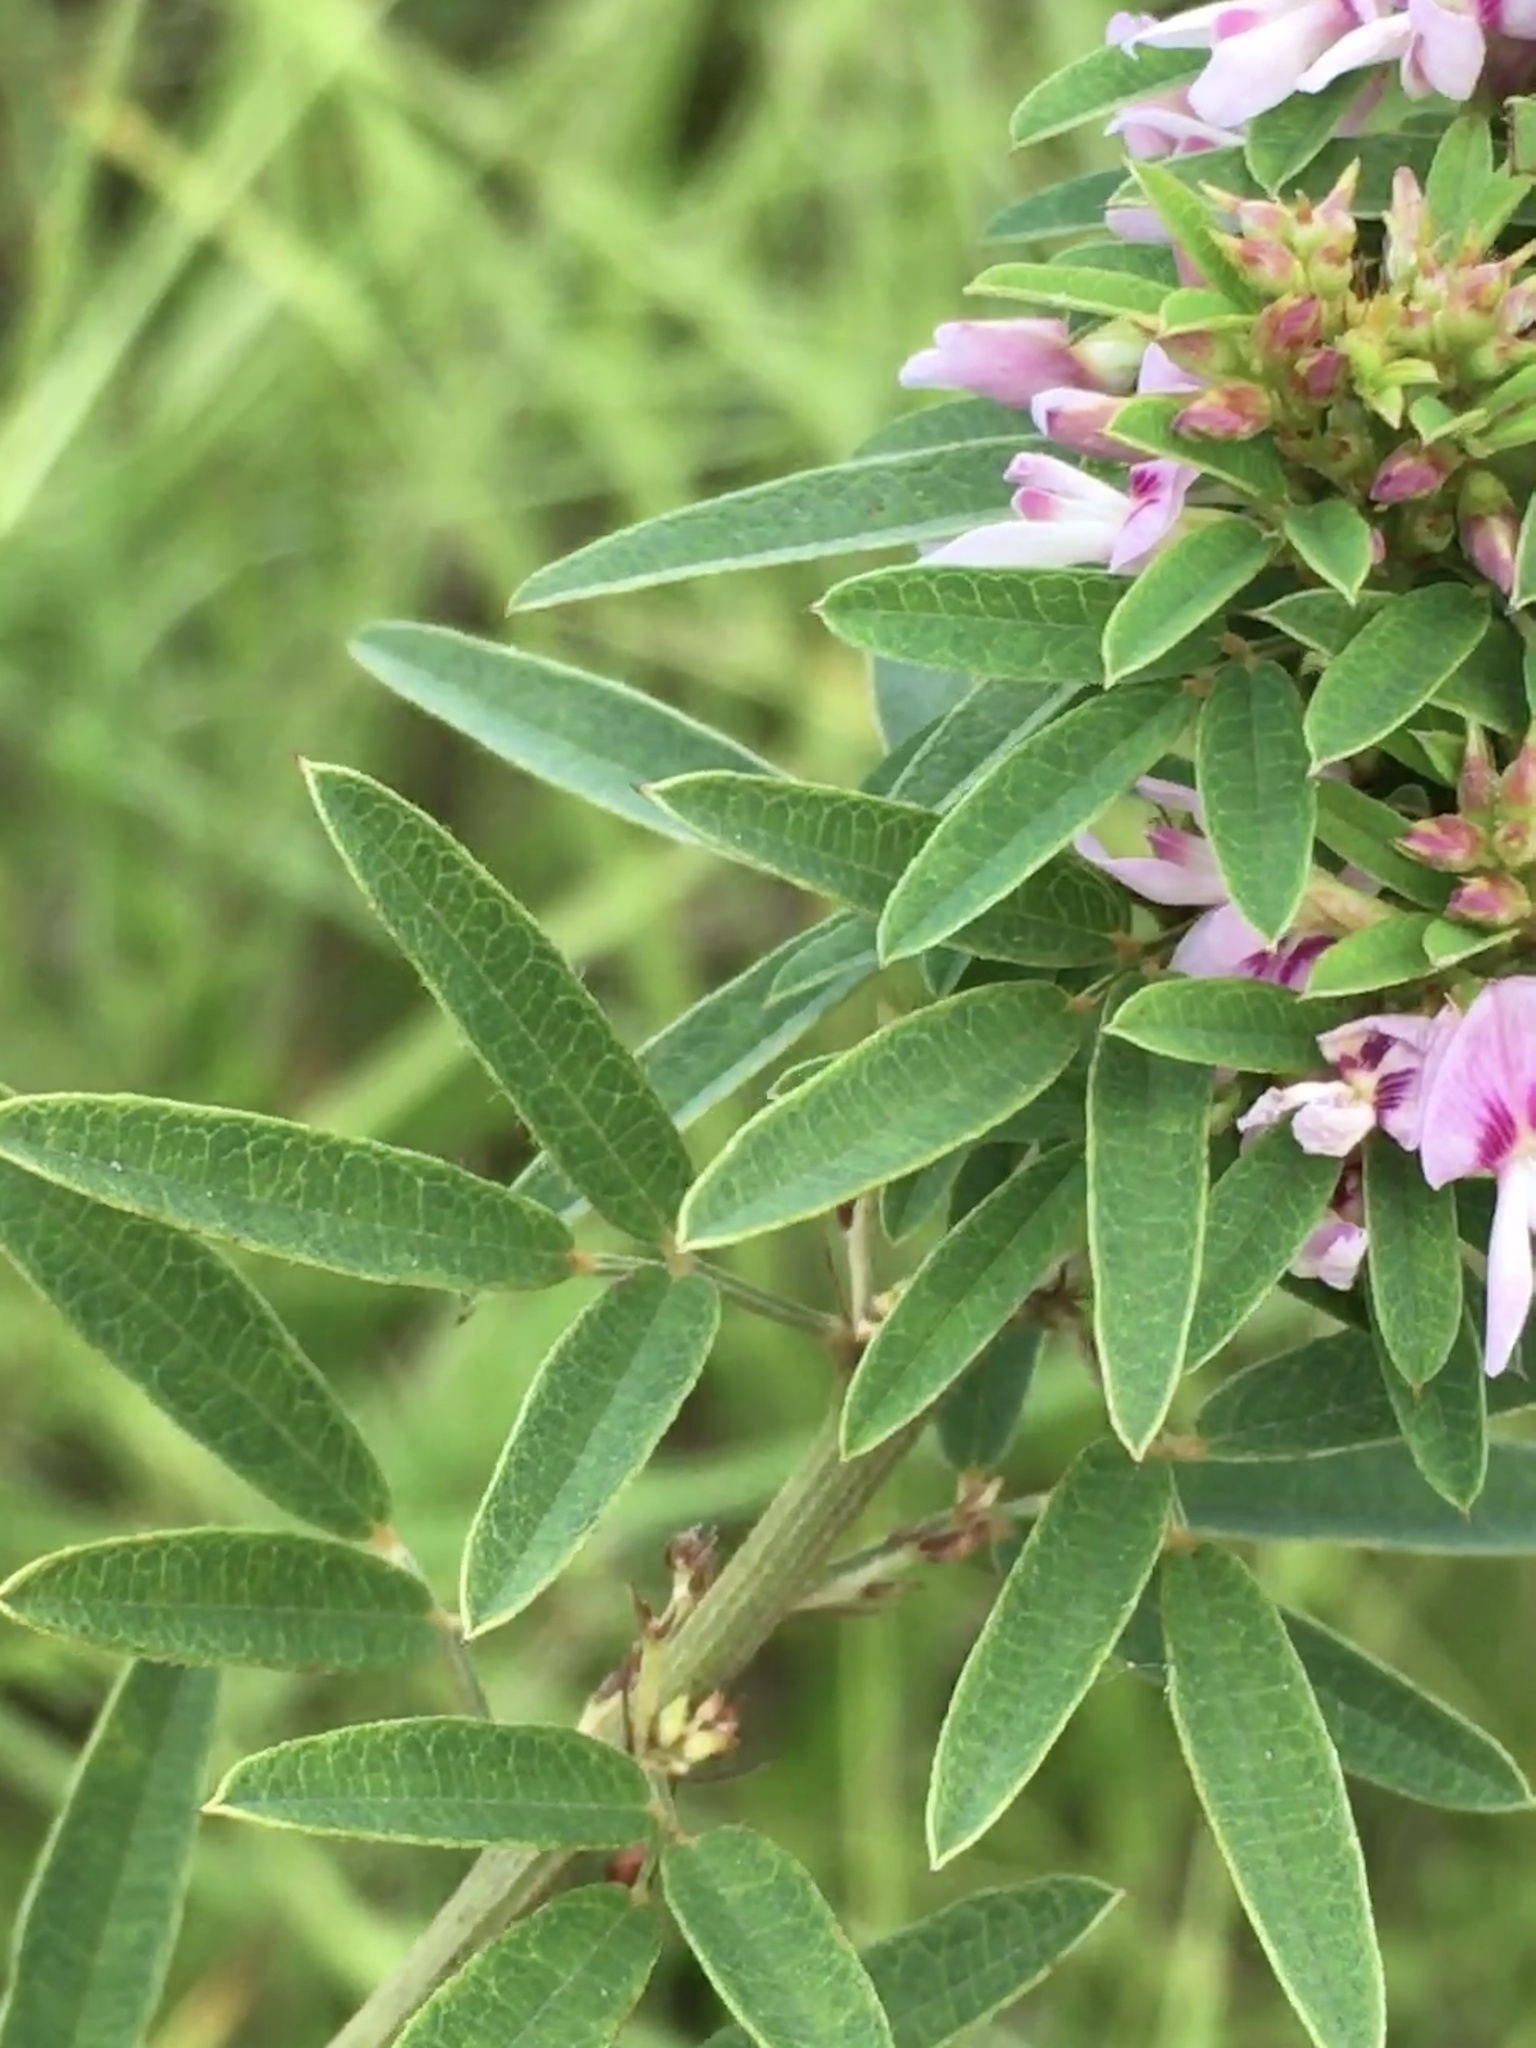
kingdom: Plantae
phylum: Tracheophyta
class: Magnoliopsida
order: Fabales
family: Fabaceae
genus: Lespedeza
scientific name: Lespedeza virginica
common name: Slender bush-clover
